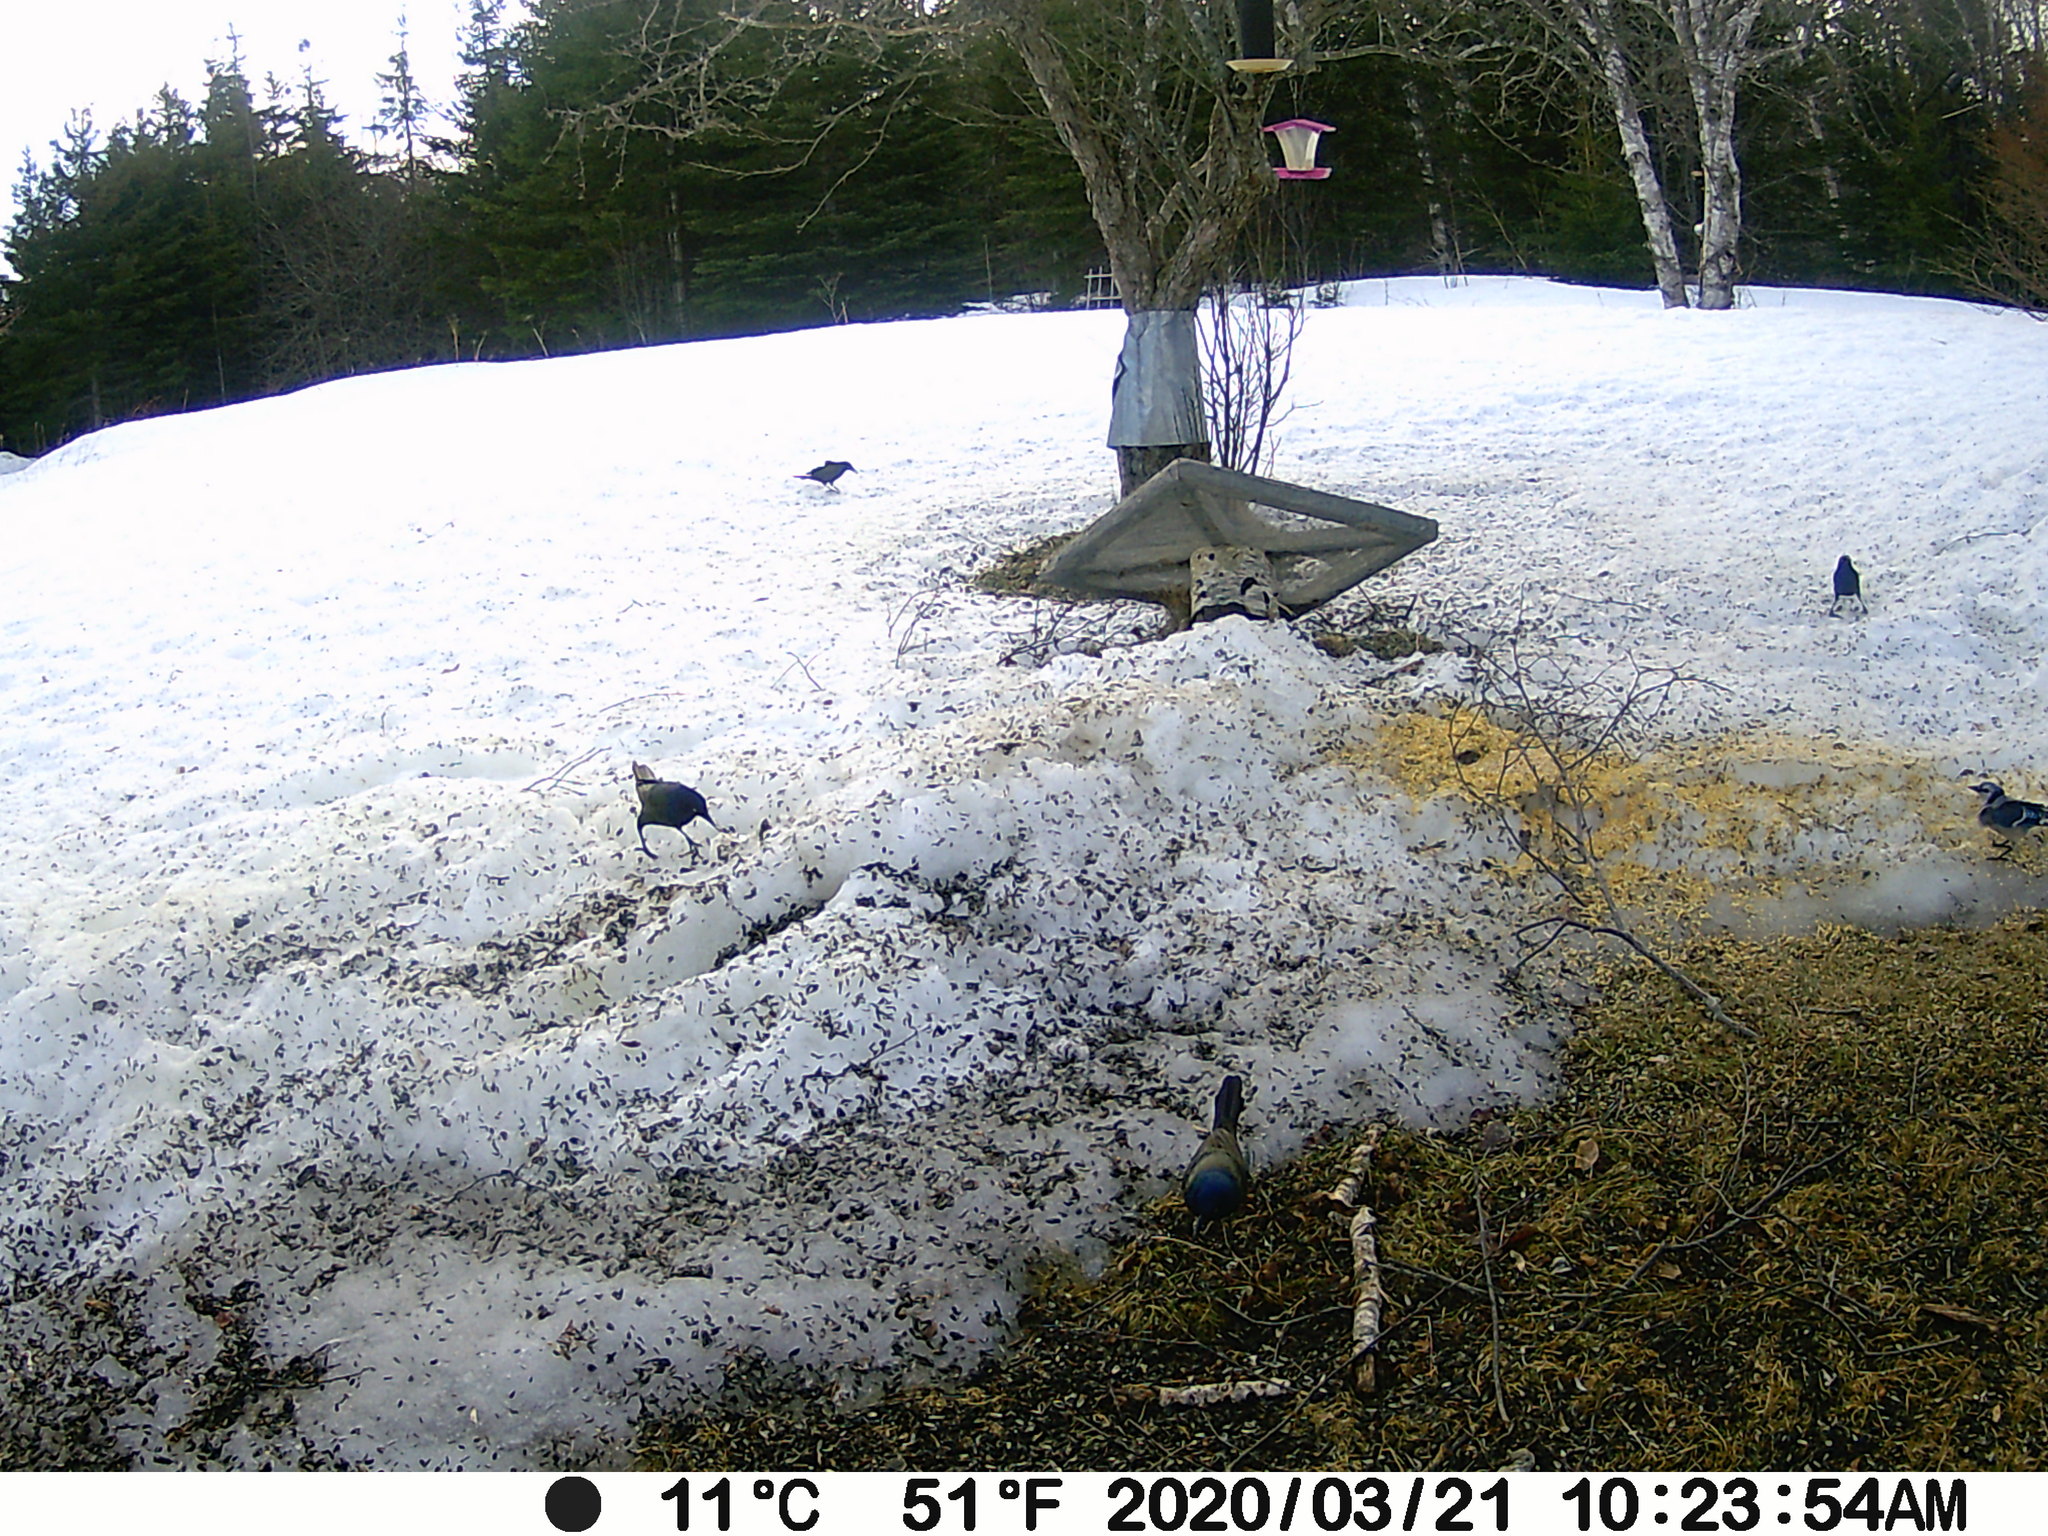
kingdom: Animalia
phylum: Chordata
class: Aves
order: Passeriformes
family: Icteridae
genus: Quiscalus
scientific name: Quiscalus quiscula
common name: Common grackle
